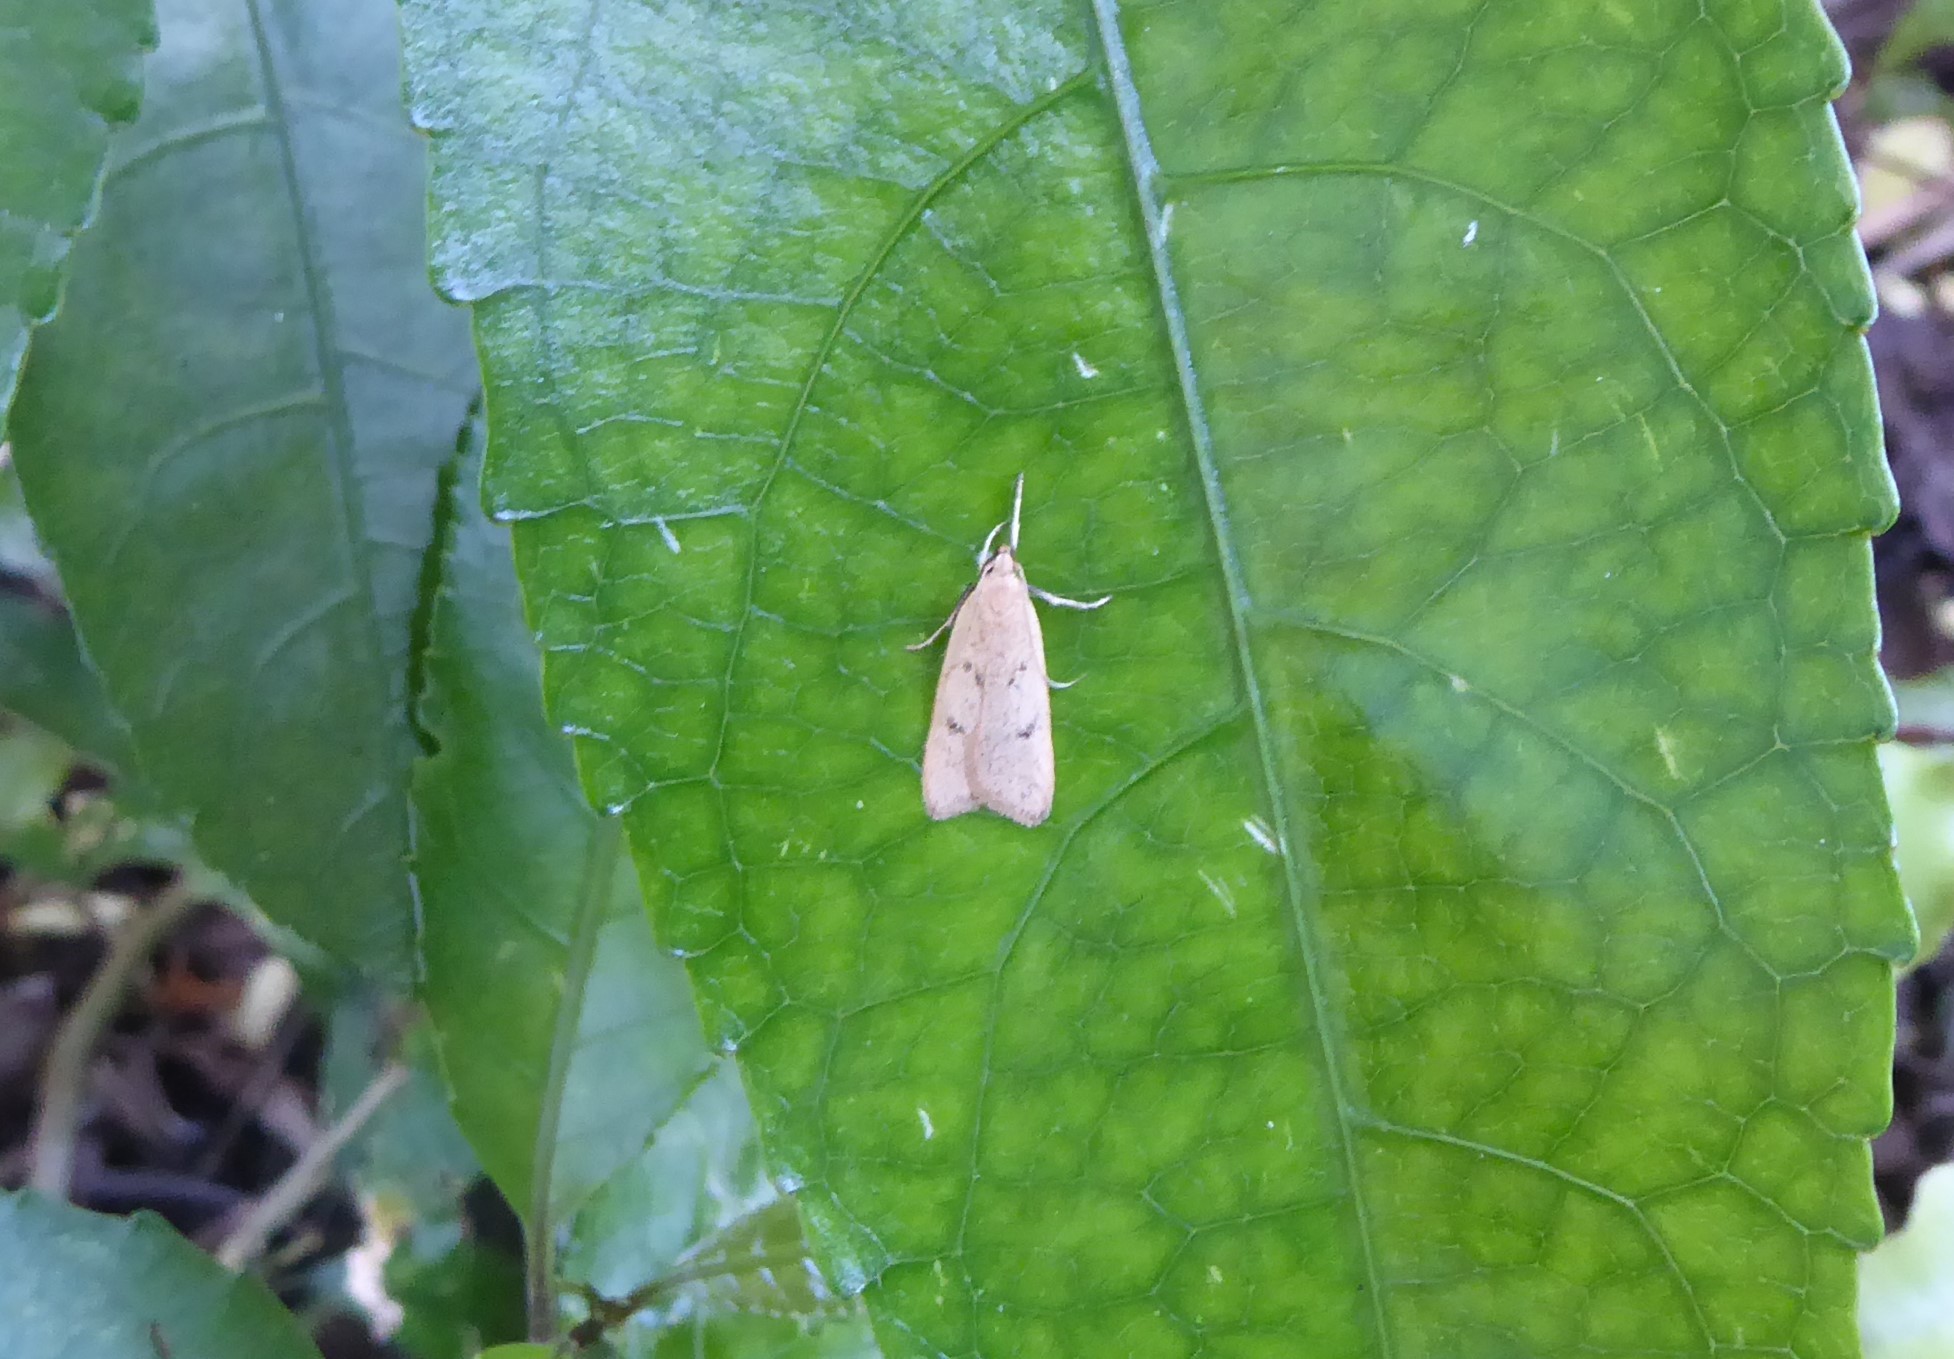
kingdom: Animalia
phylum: Arthropoda
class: Insecta
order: Lepidoptera
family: Oecophoridae
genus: Gymnobathra
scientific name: Gymnobathra sarcoxantha
